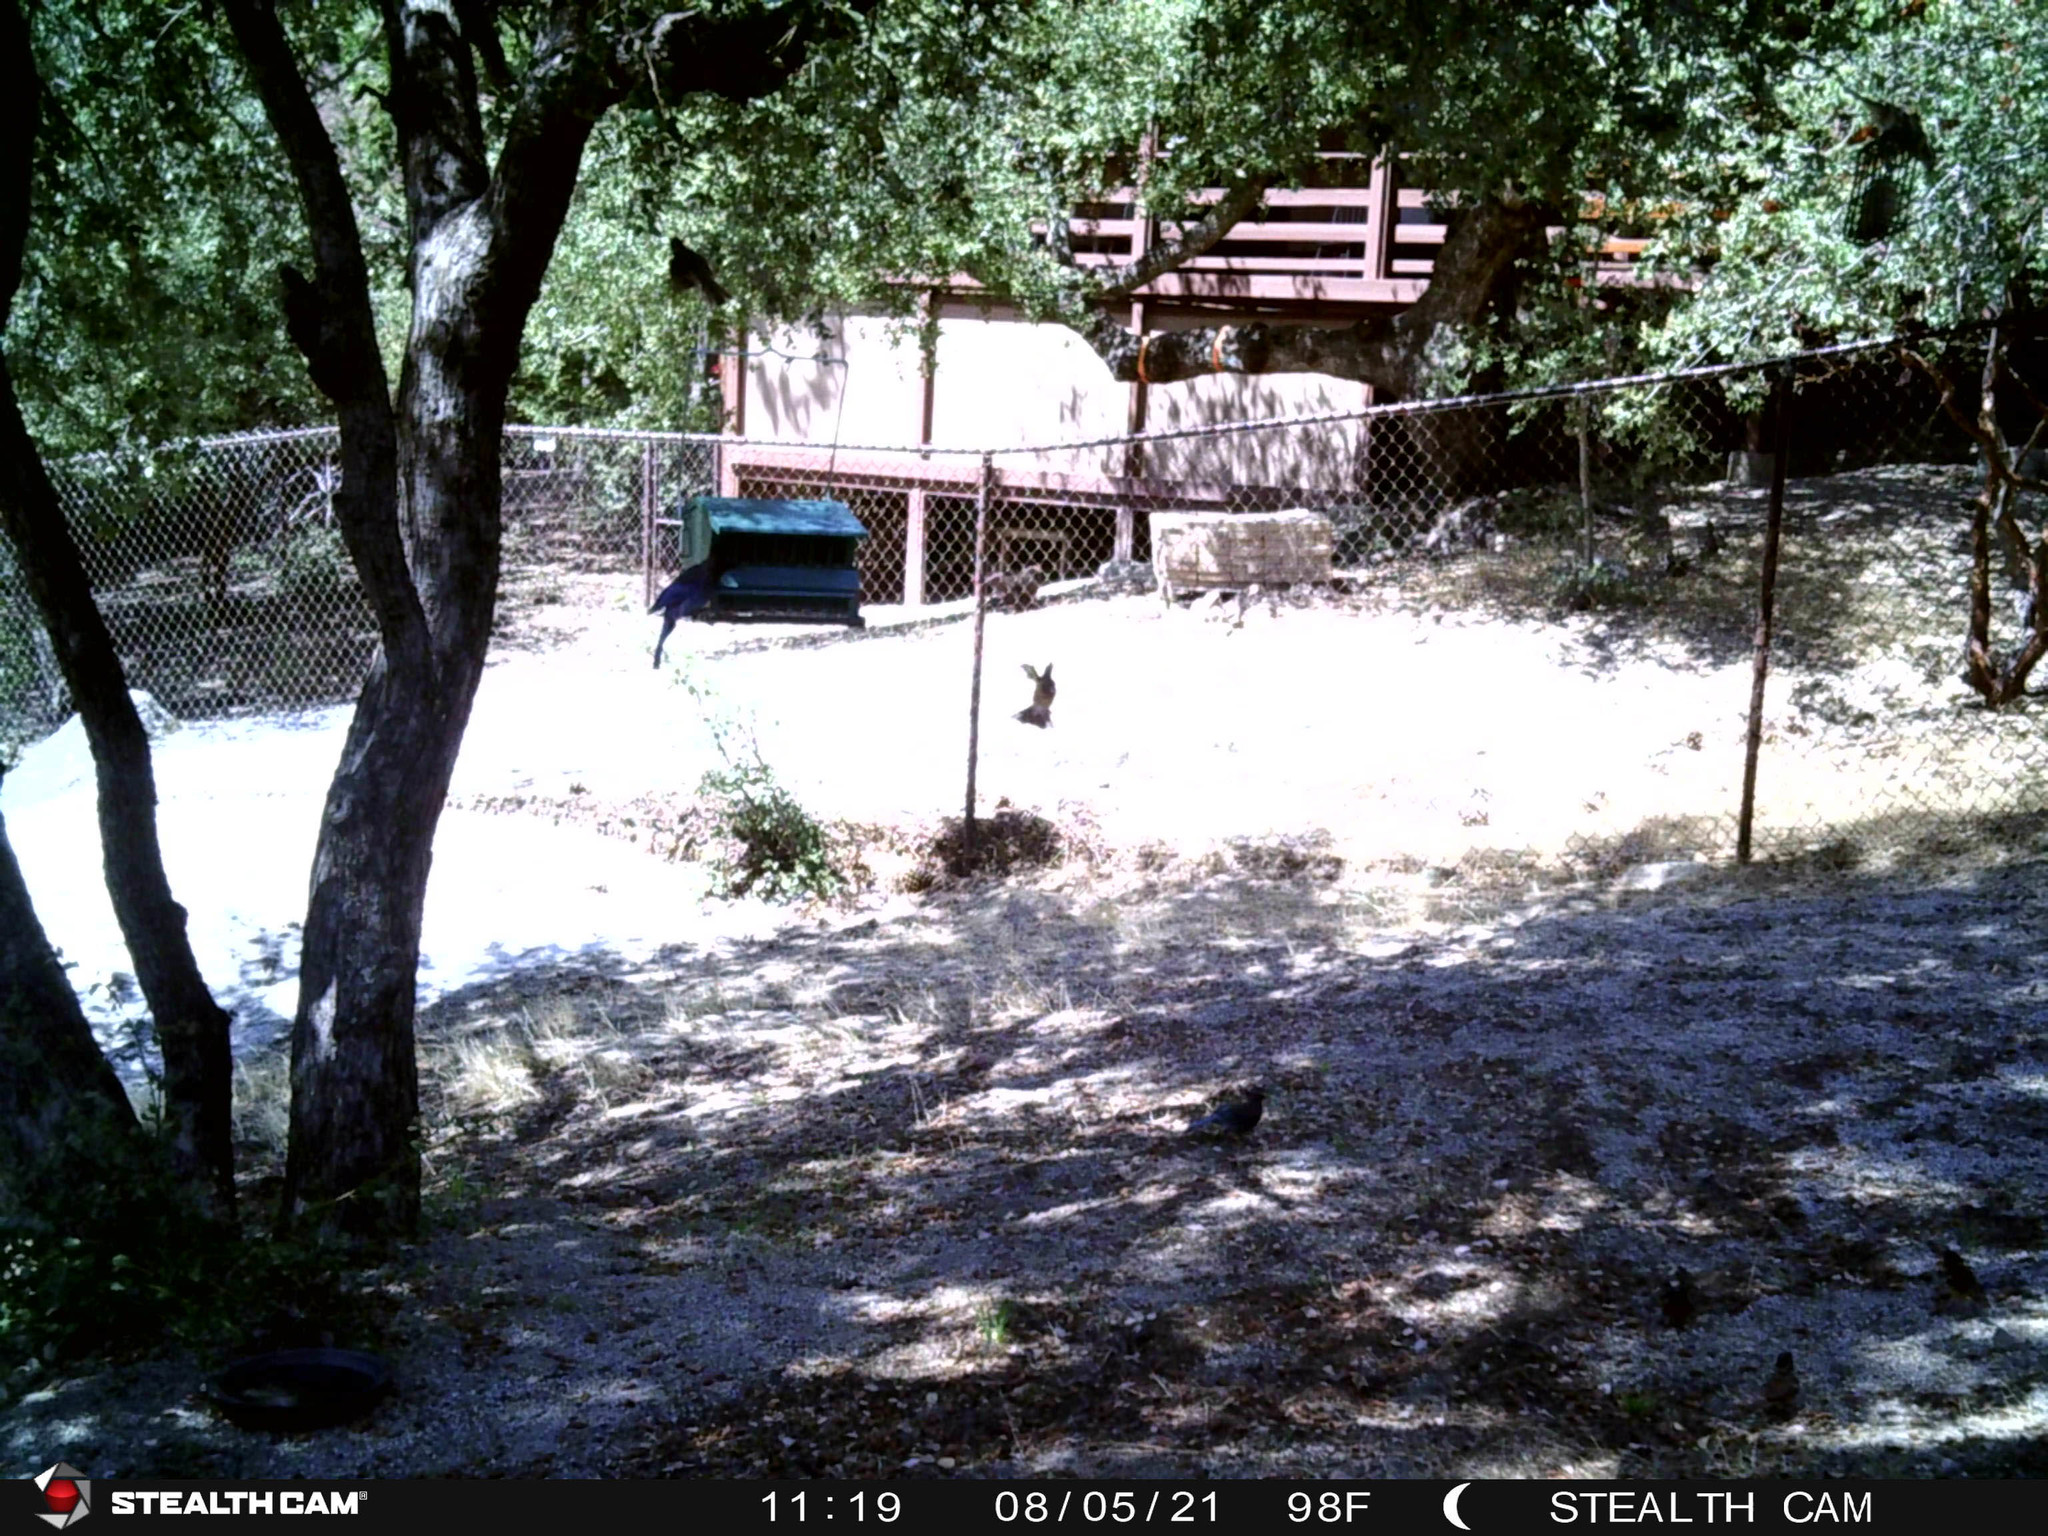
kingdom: Animalia
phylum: Chordata
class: Aves
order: Passeriformes
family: Cardinalidae
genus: Pheucticus
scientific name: Pheucticus melanocephalus
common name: Black-headed grosbeak
